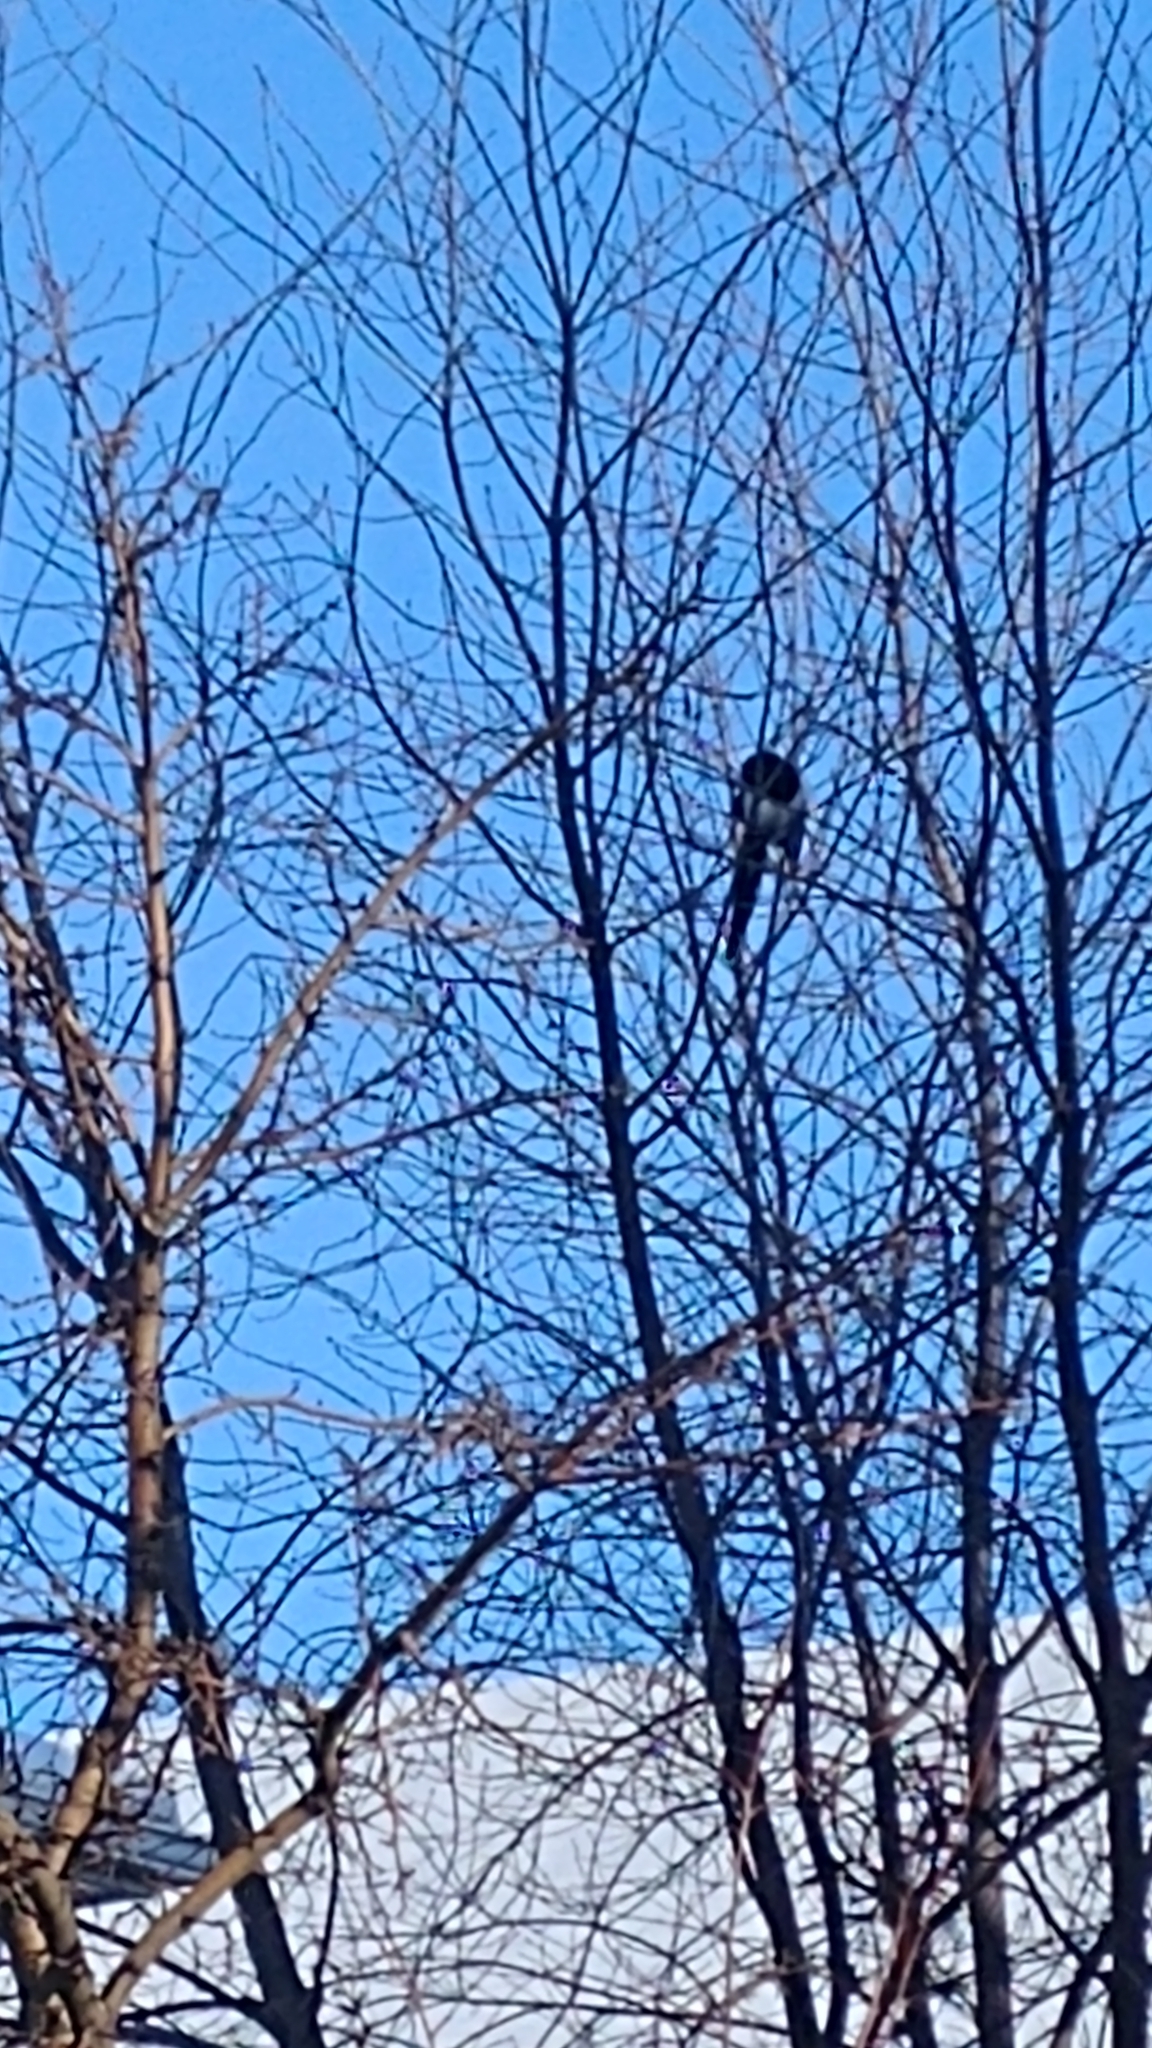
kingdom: Animalia
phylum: Chordata
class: Aves
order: Passeriformes
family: Corvidae
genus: Pica
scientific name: Pica hudsonia
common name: Black-billed magpie
